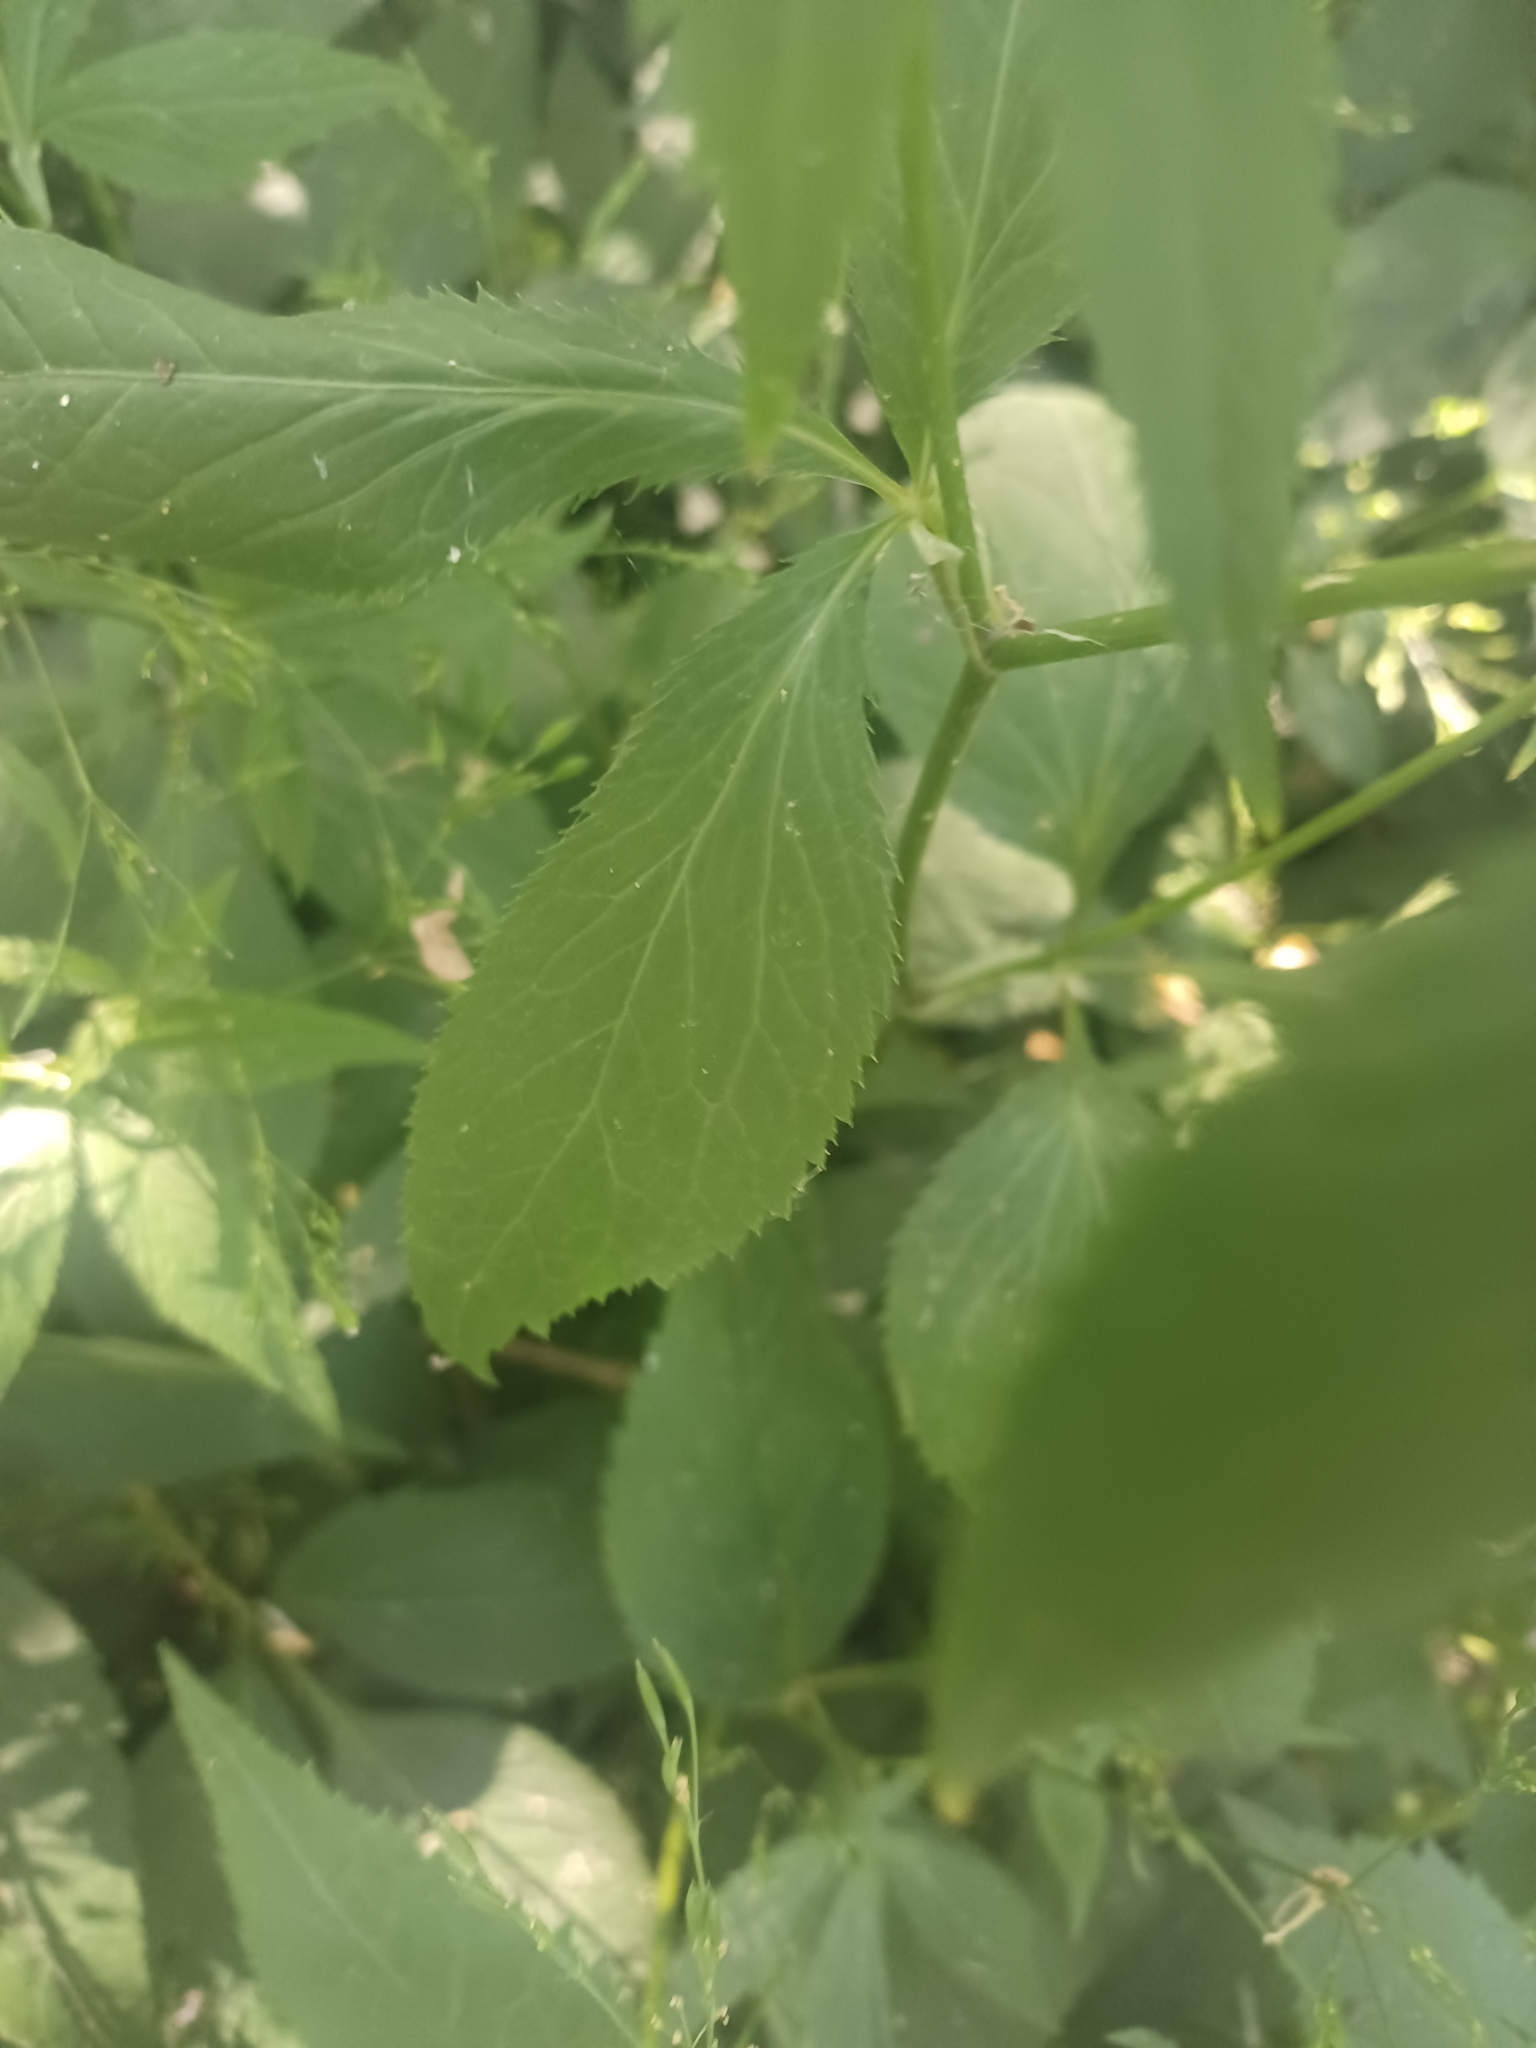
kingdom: Plantae
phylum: Tracheophyta
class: Magnoliopsida
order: Apiales
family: Apiaceae
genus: Cryptotaenia
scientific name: Cryptotaenia canadensis
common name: Honewort
